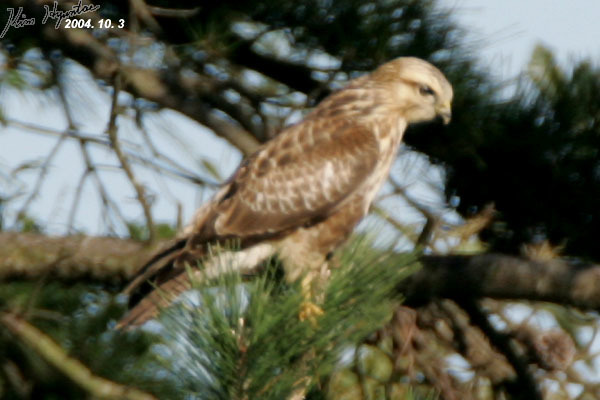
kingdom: Animalia
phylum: Chordata
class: Aves
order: Accipitriformes
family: Accipitridae
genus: Buteo
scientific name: Buteo japonicus
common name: Eastern buzzard
